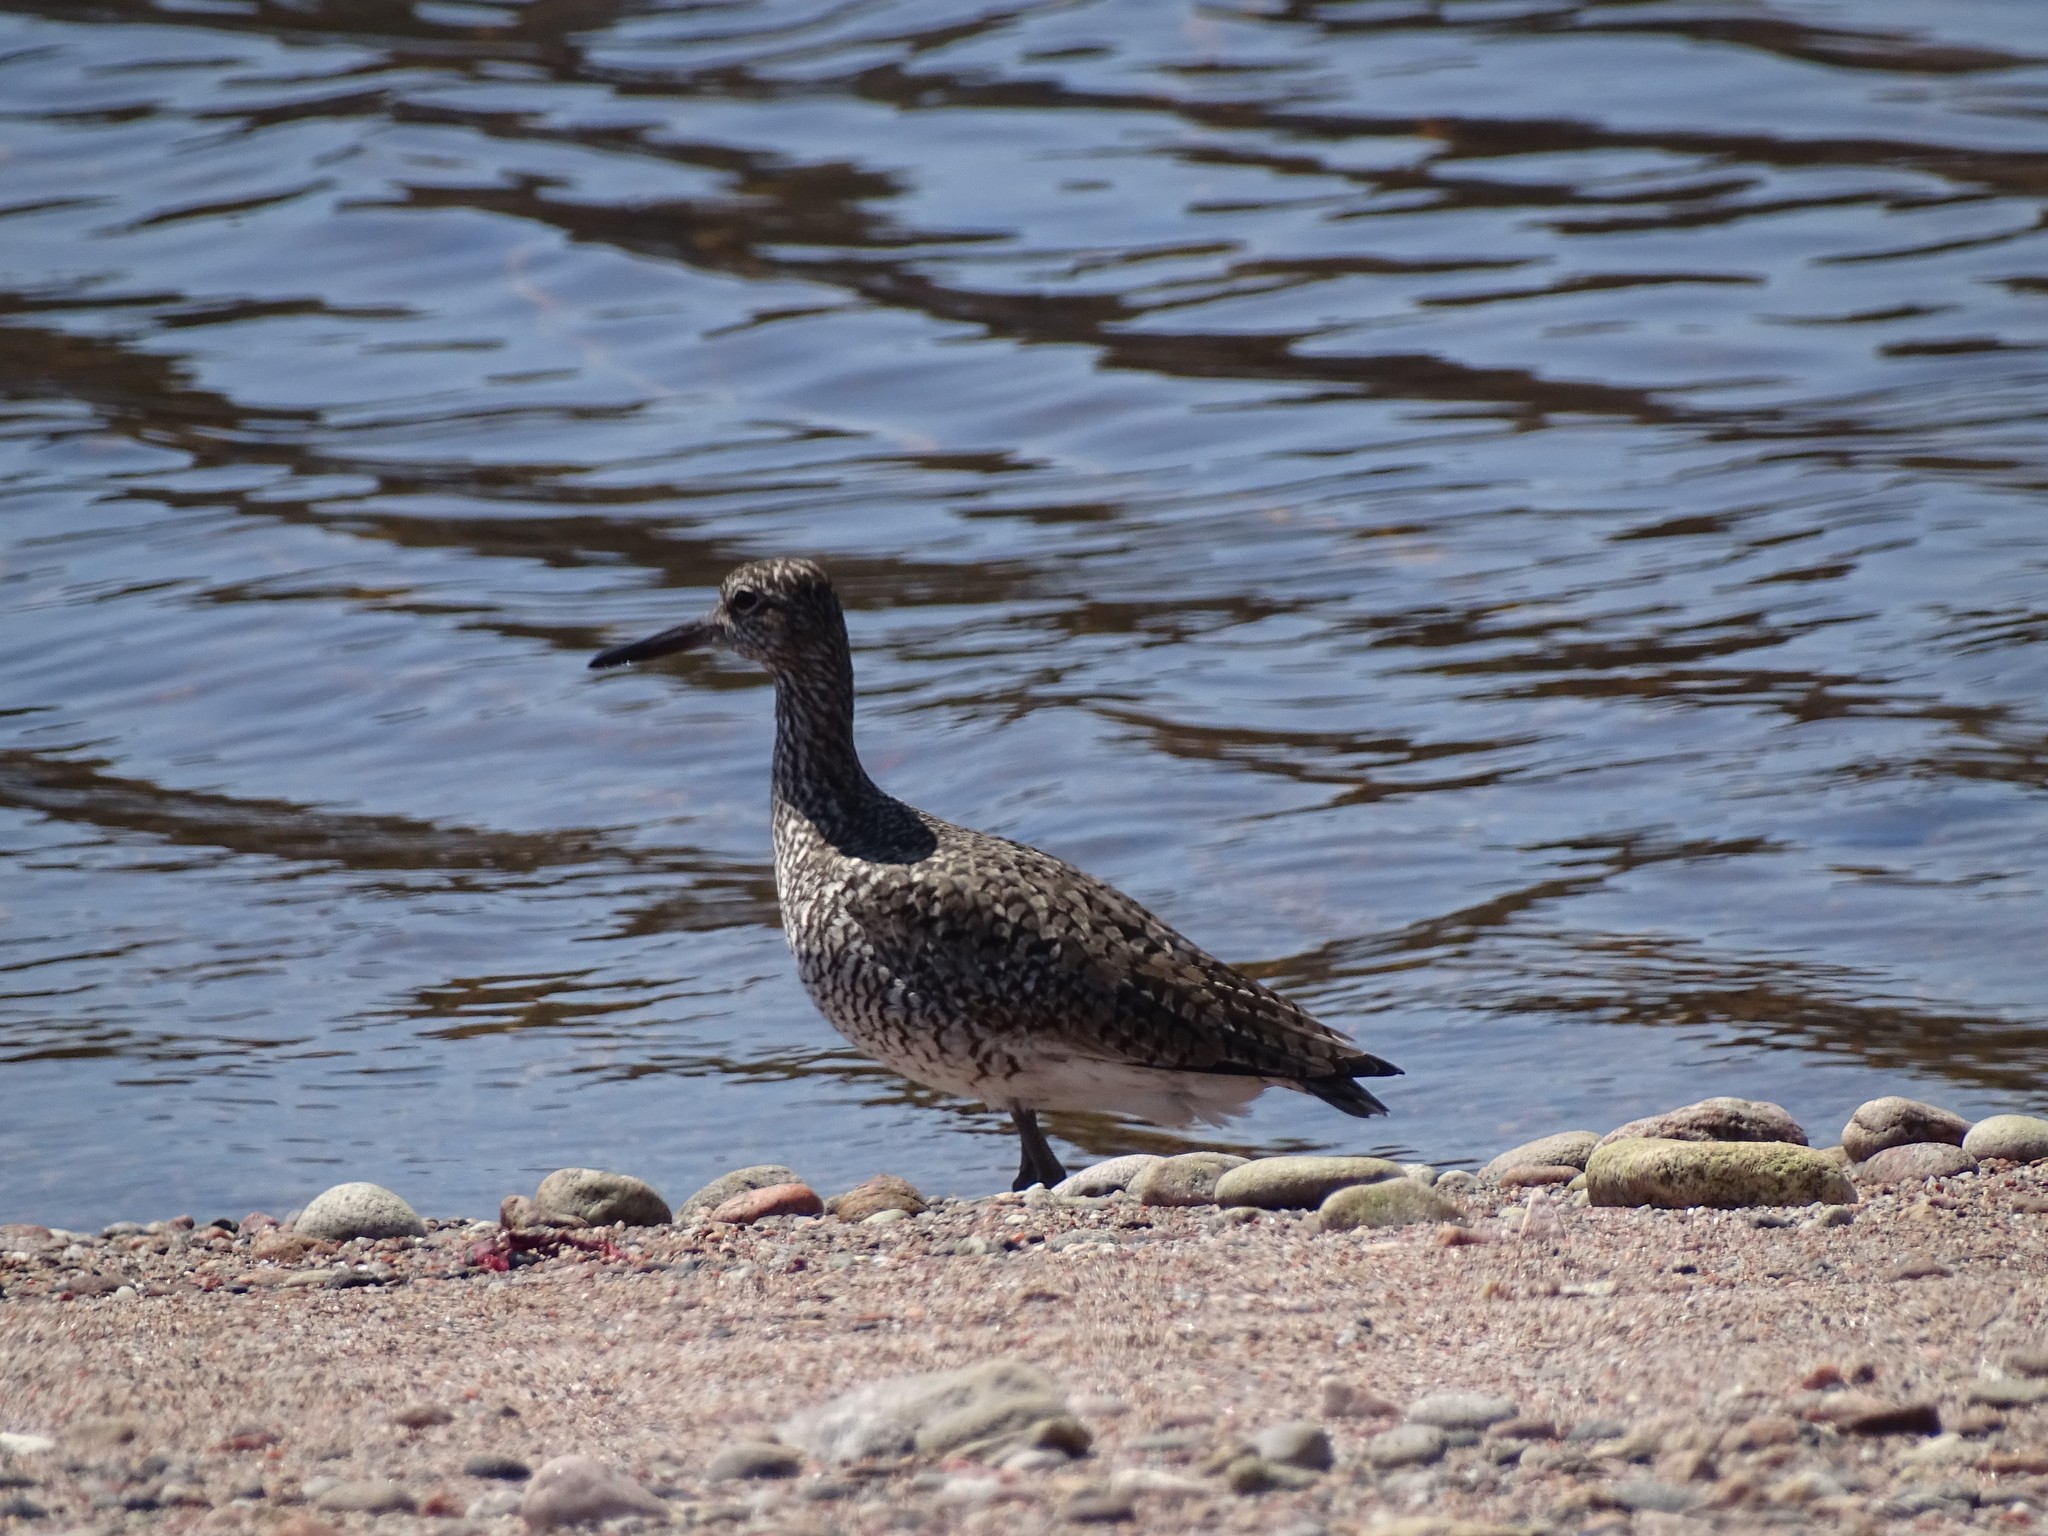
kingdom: Animalia
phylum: Chordata
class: Aves
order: Charadriiformes
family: Scolopacidae
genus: Tringa
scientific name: Tringa semipalmata
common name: Willet
